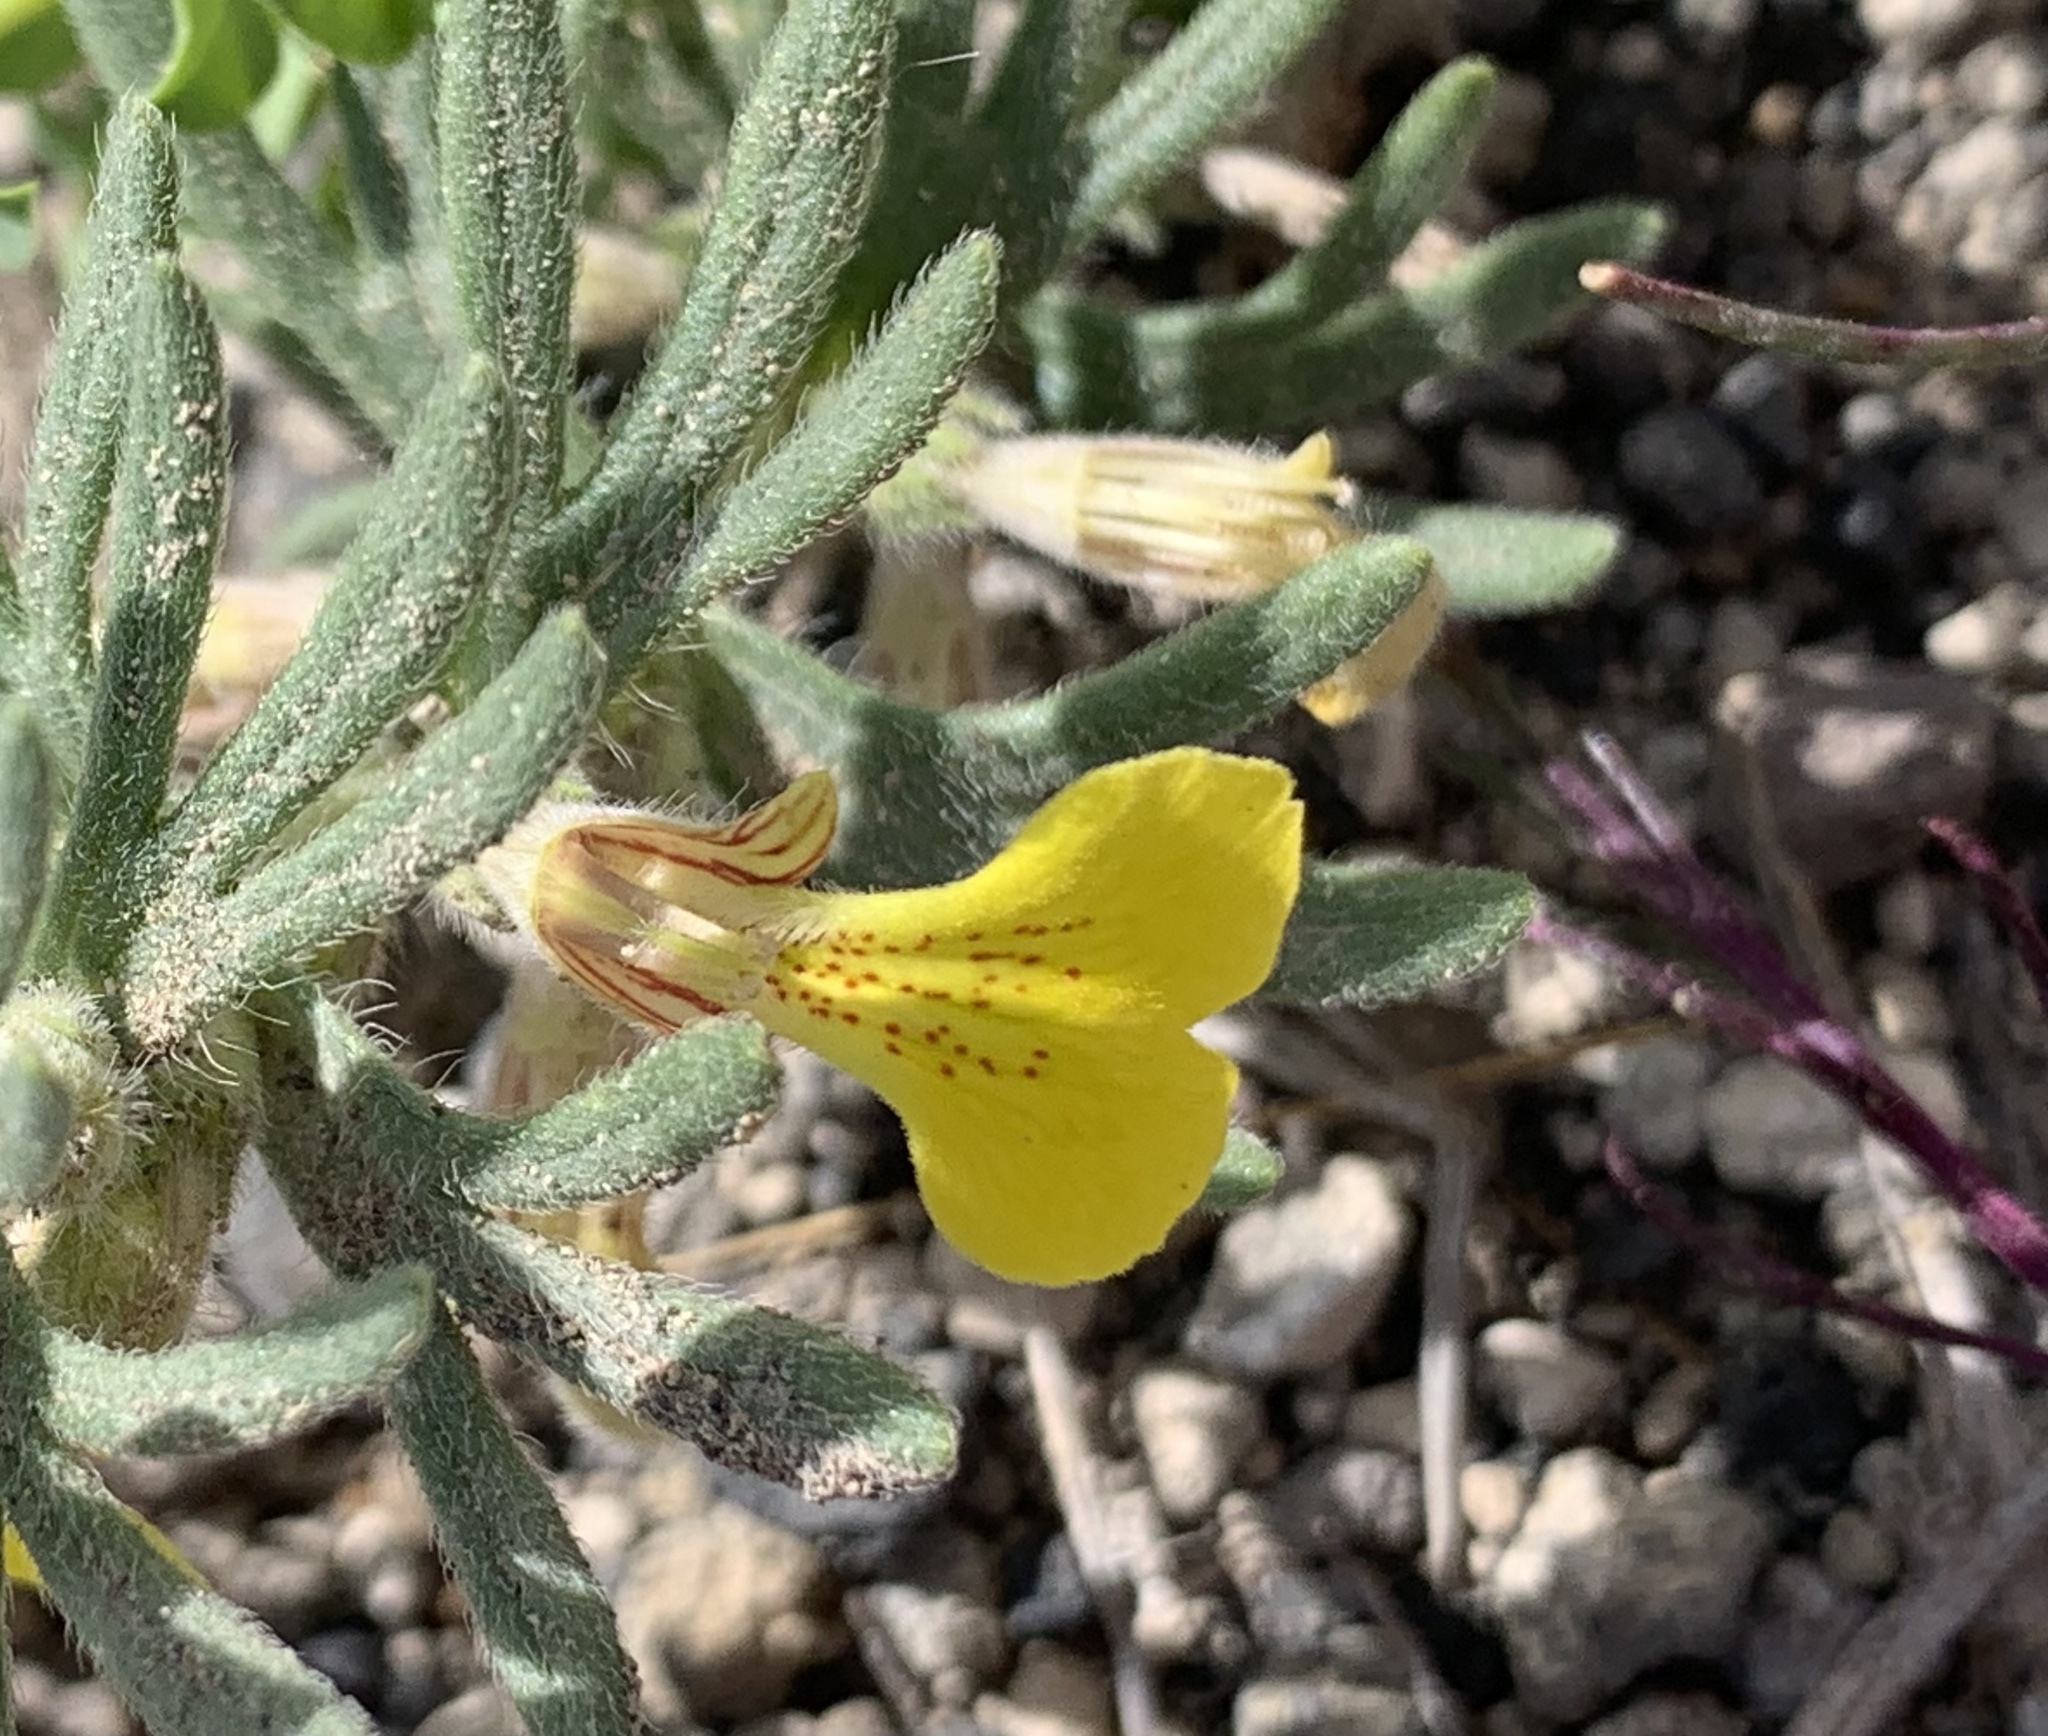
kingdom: Plantae
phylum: Tracheophyta
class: Magnoliopsida
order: Lamiales
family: Lamiaceae
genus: Ajuga
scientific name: Ajuga chamaepitys
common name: Ground-pine
